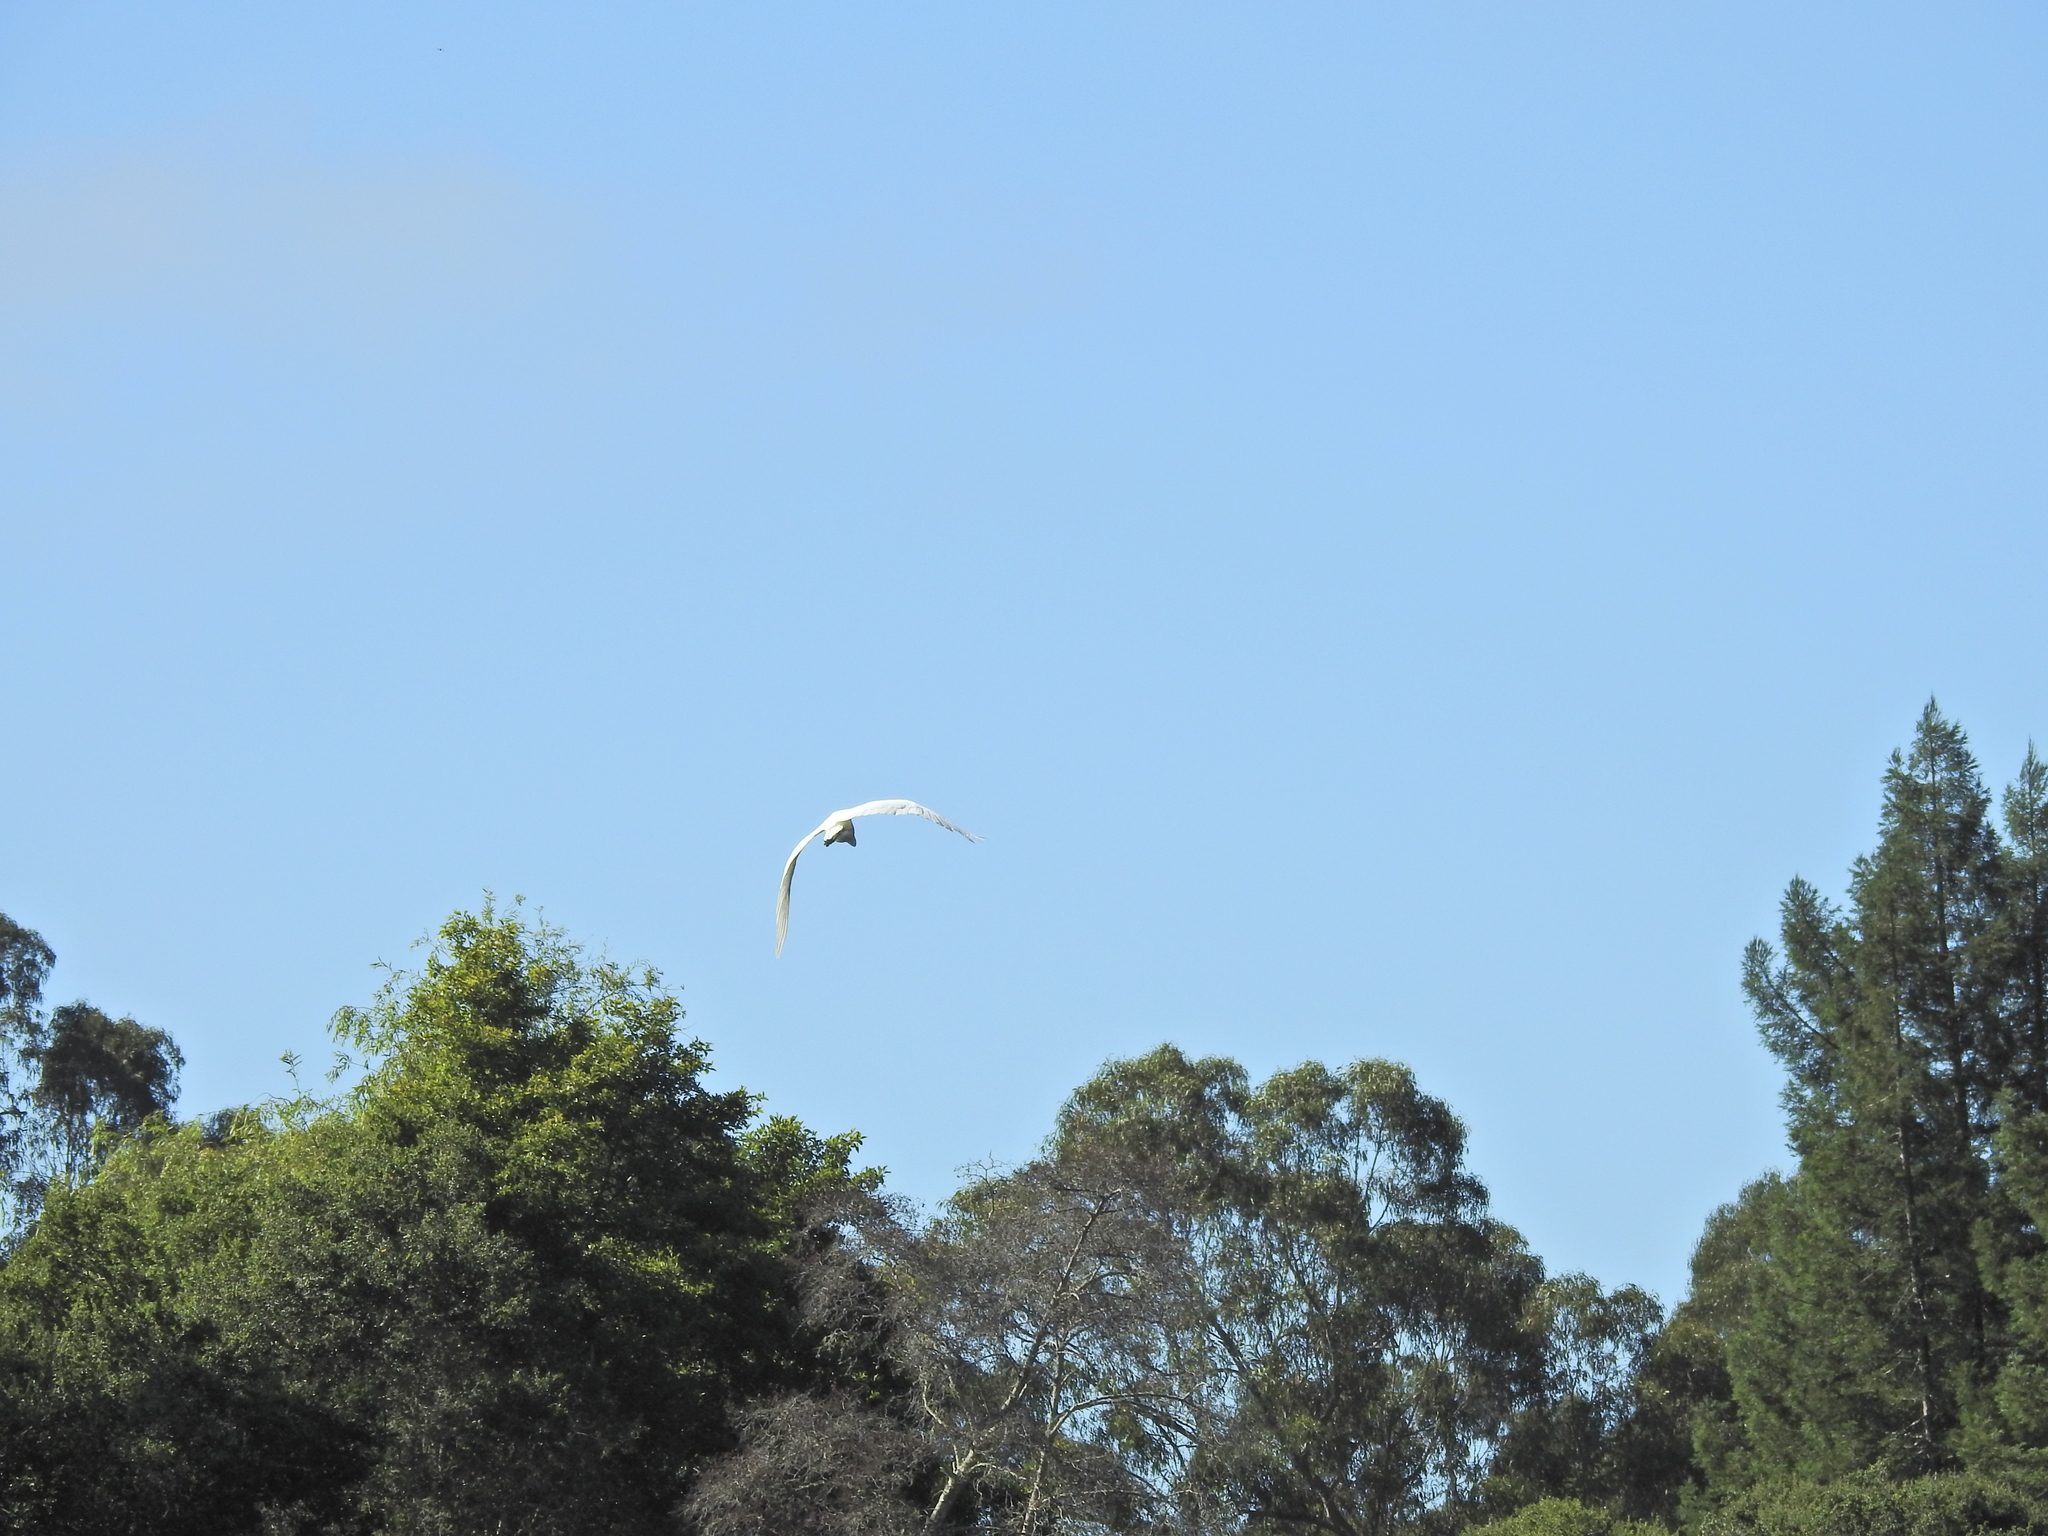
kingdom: Animalia
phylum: Chordata
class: Aves
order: Pelecaniformes
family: Ardeidae
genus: Ardea
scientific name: Ardea alba
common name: Great egret
